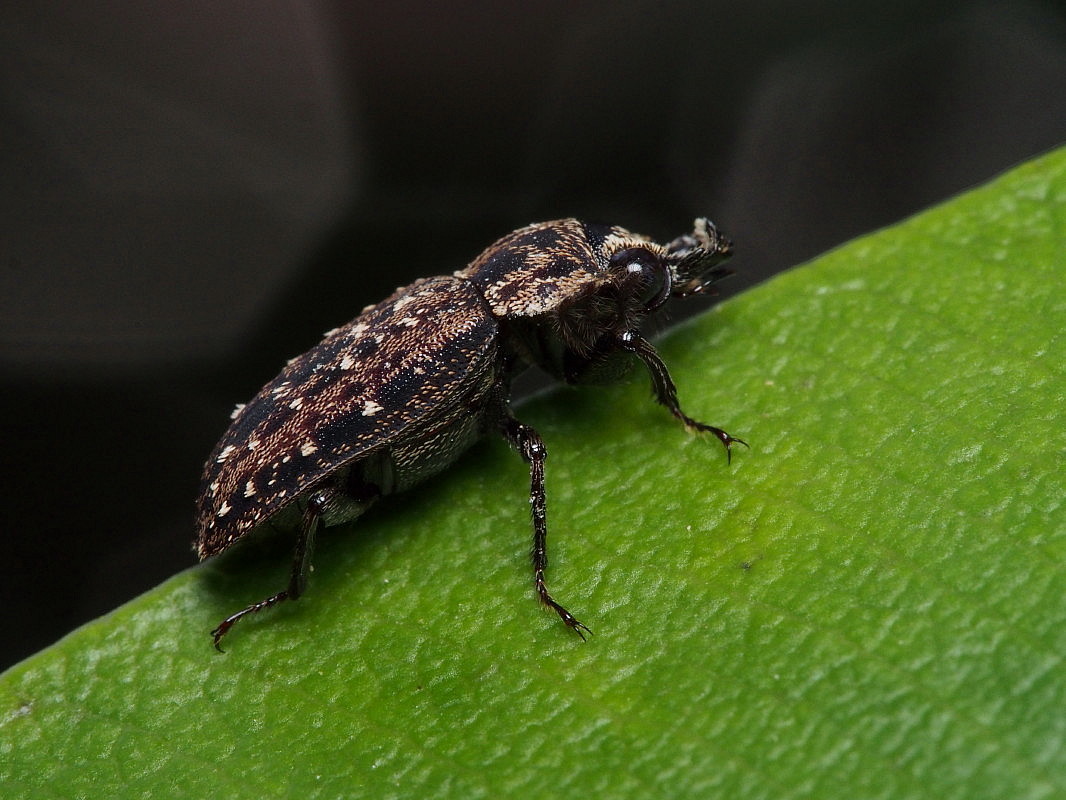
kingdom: Animalia
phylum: Arthropoda
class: Insecta
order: Coleoptera
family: Lucanidae
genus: Mitophyllus
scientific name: Mitophyllus irroratus
